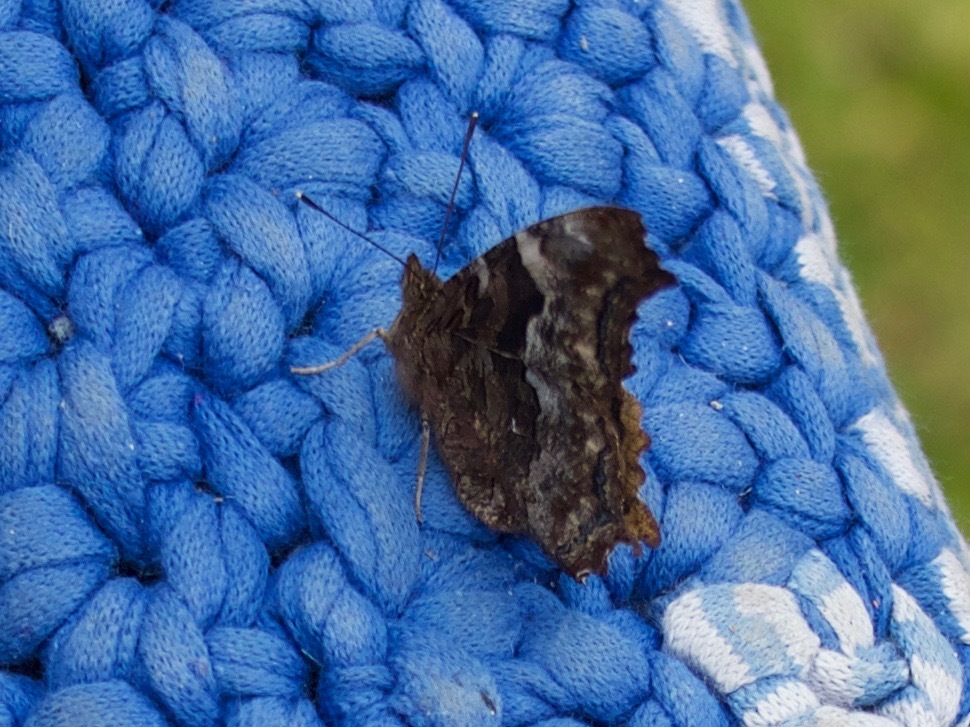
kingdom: Animalia
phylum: Arthropoda
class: Insecta
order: Lepidoptera
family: Nymphalidae
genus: Polygonia
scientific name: Polygonia vaualbum
